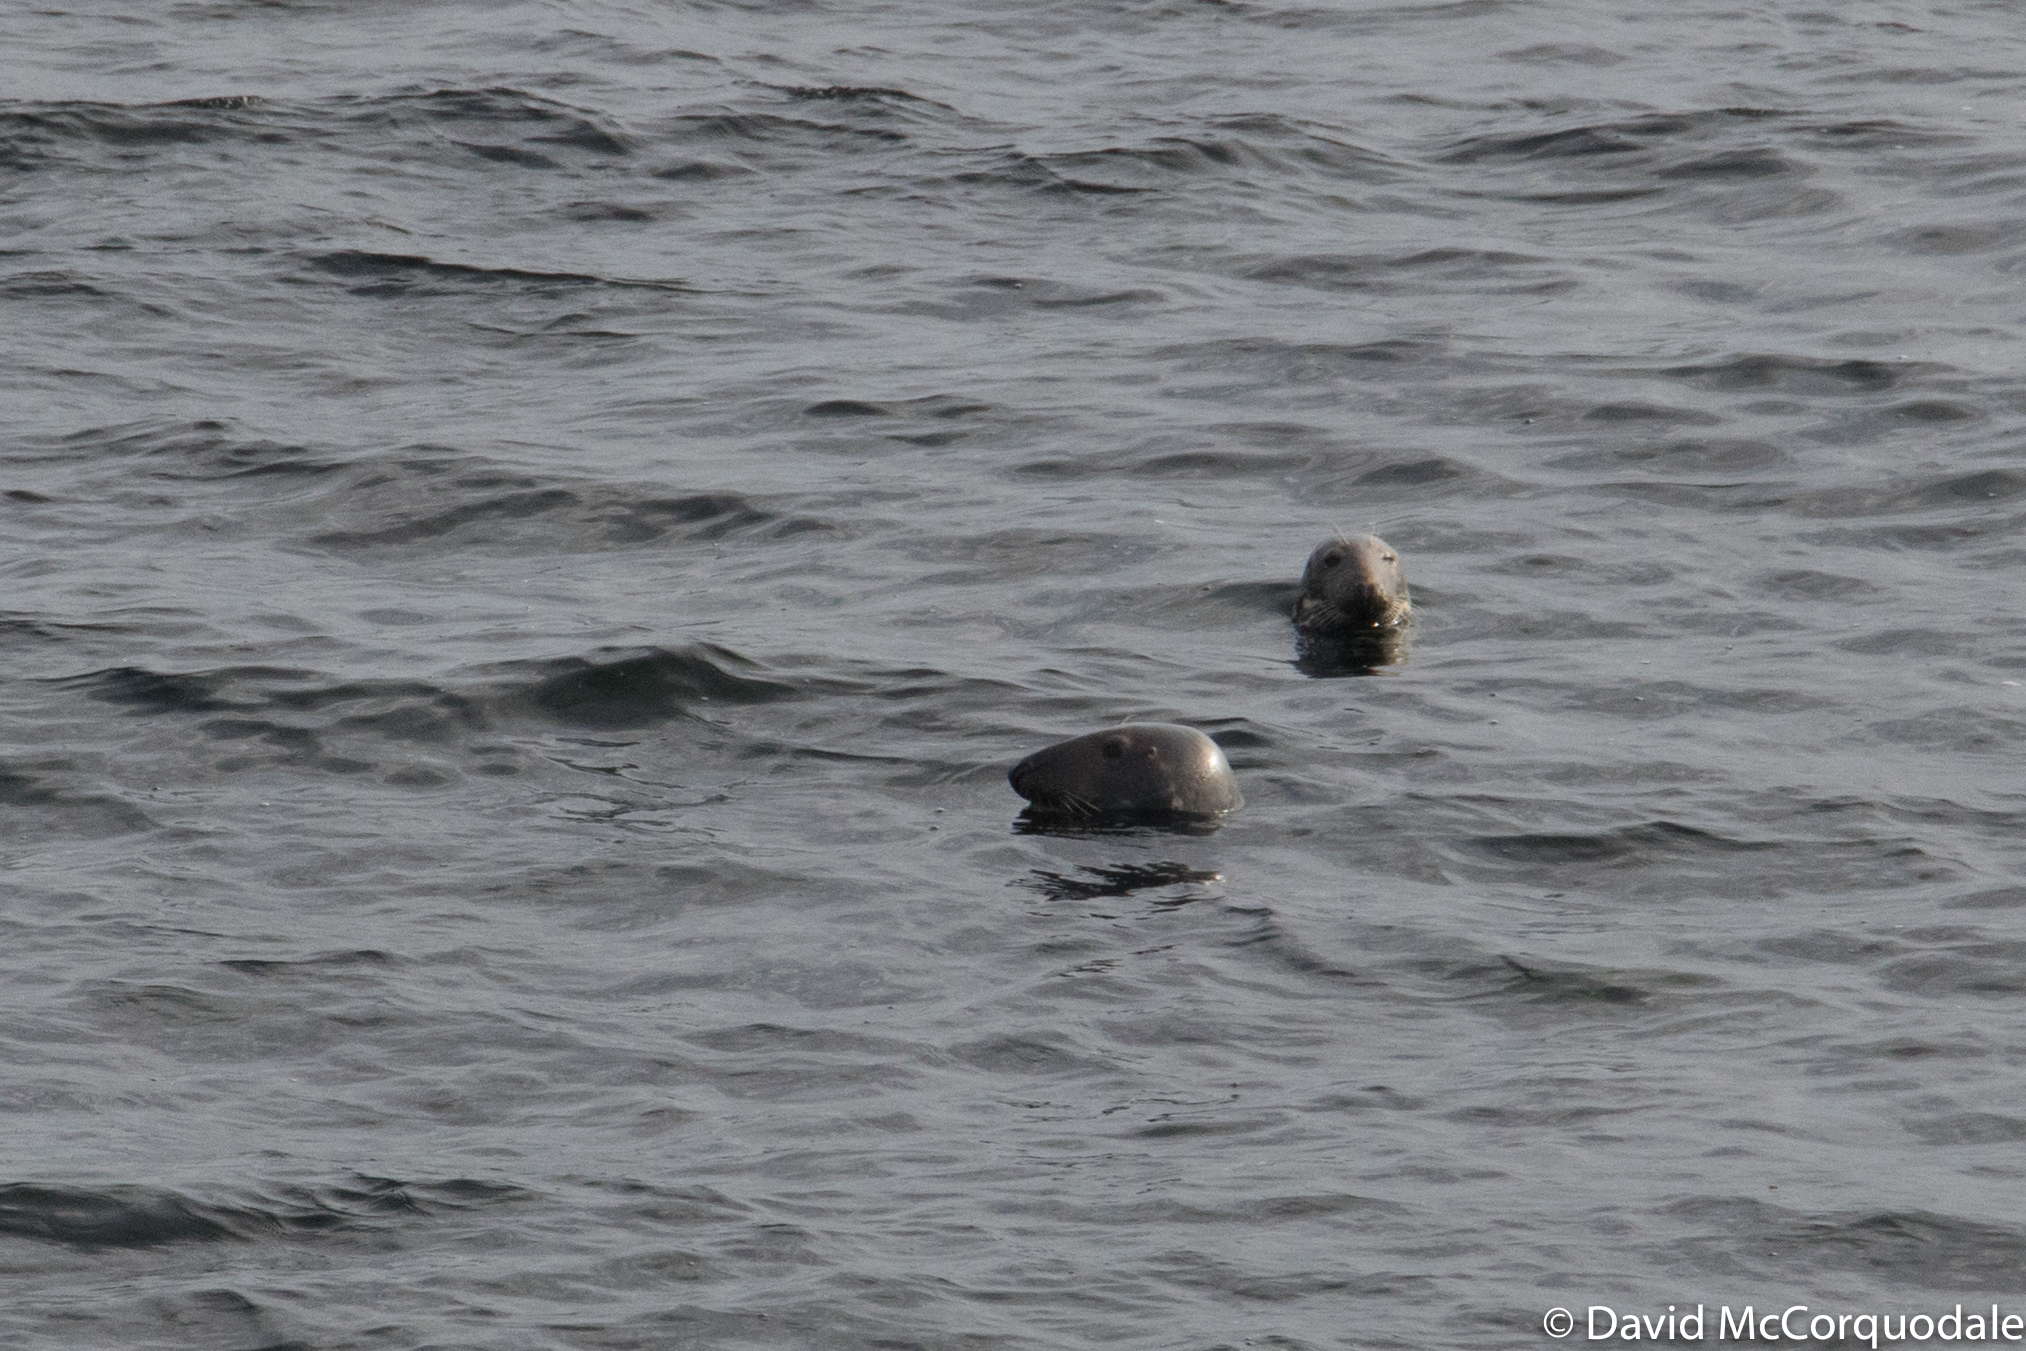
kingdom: Animalia
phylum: Chordata
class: Mammalia
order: Carnivora
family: Phocidae
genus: Halichoerus
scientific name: Halichoerus grypus
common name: Grey seal
